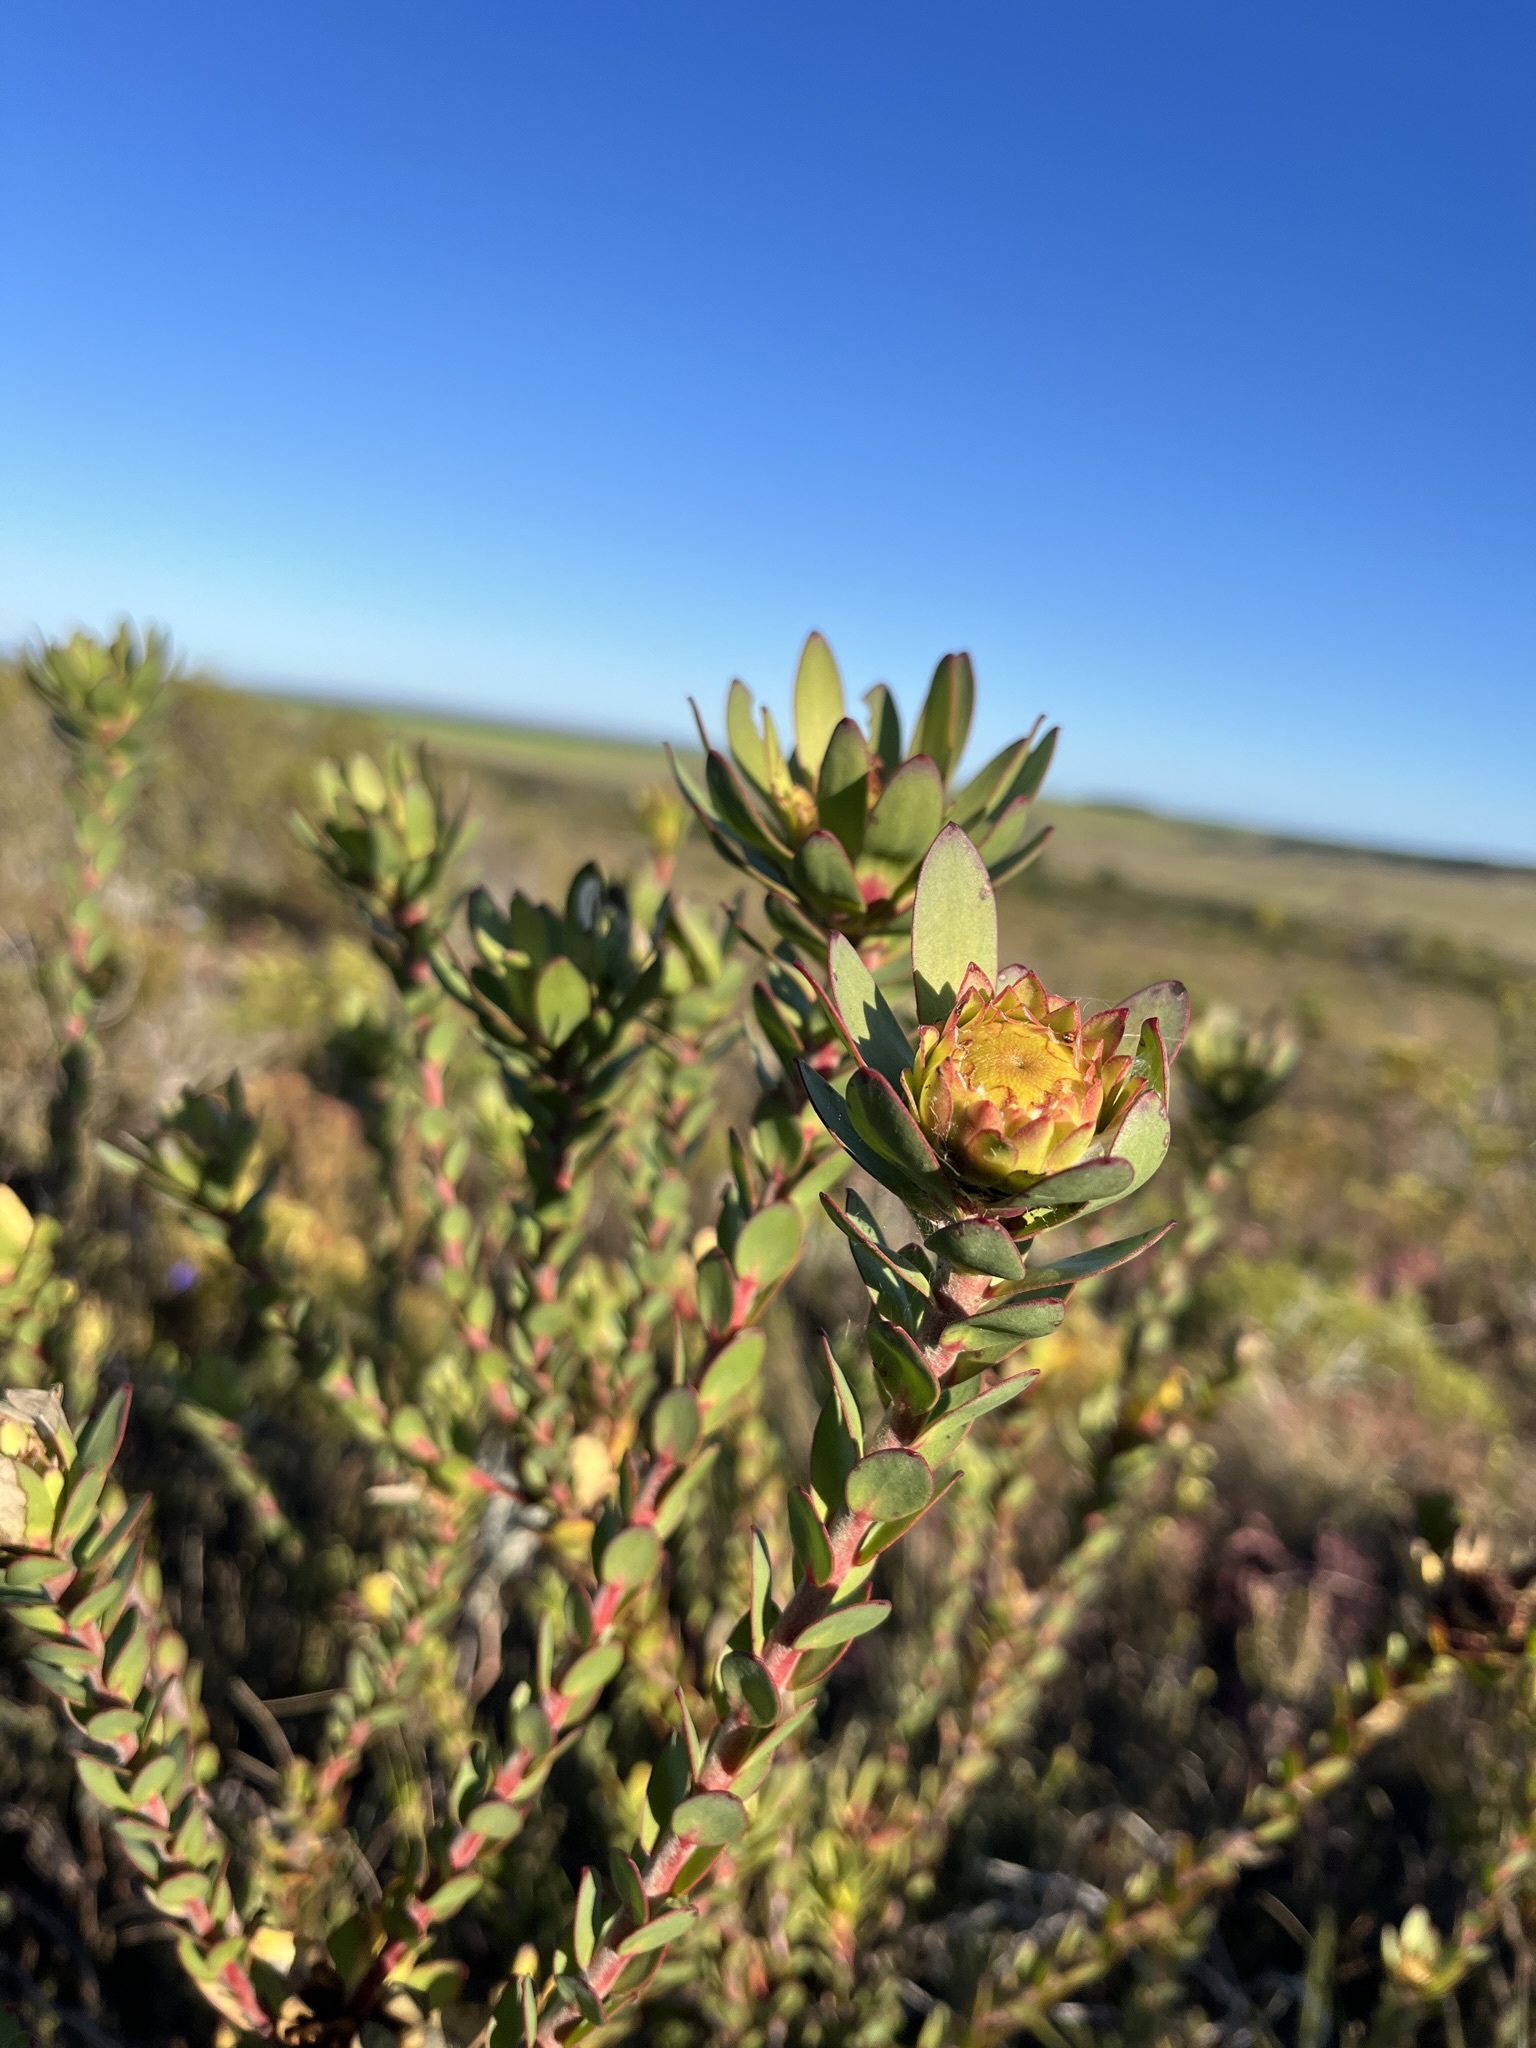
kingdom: Plantae
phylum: Tracheophyta
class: Magnoliopsida
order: Proteales
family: Proteaceae
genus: Leucadendron
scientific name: Leucadendron elimense
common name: Elim conebush
